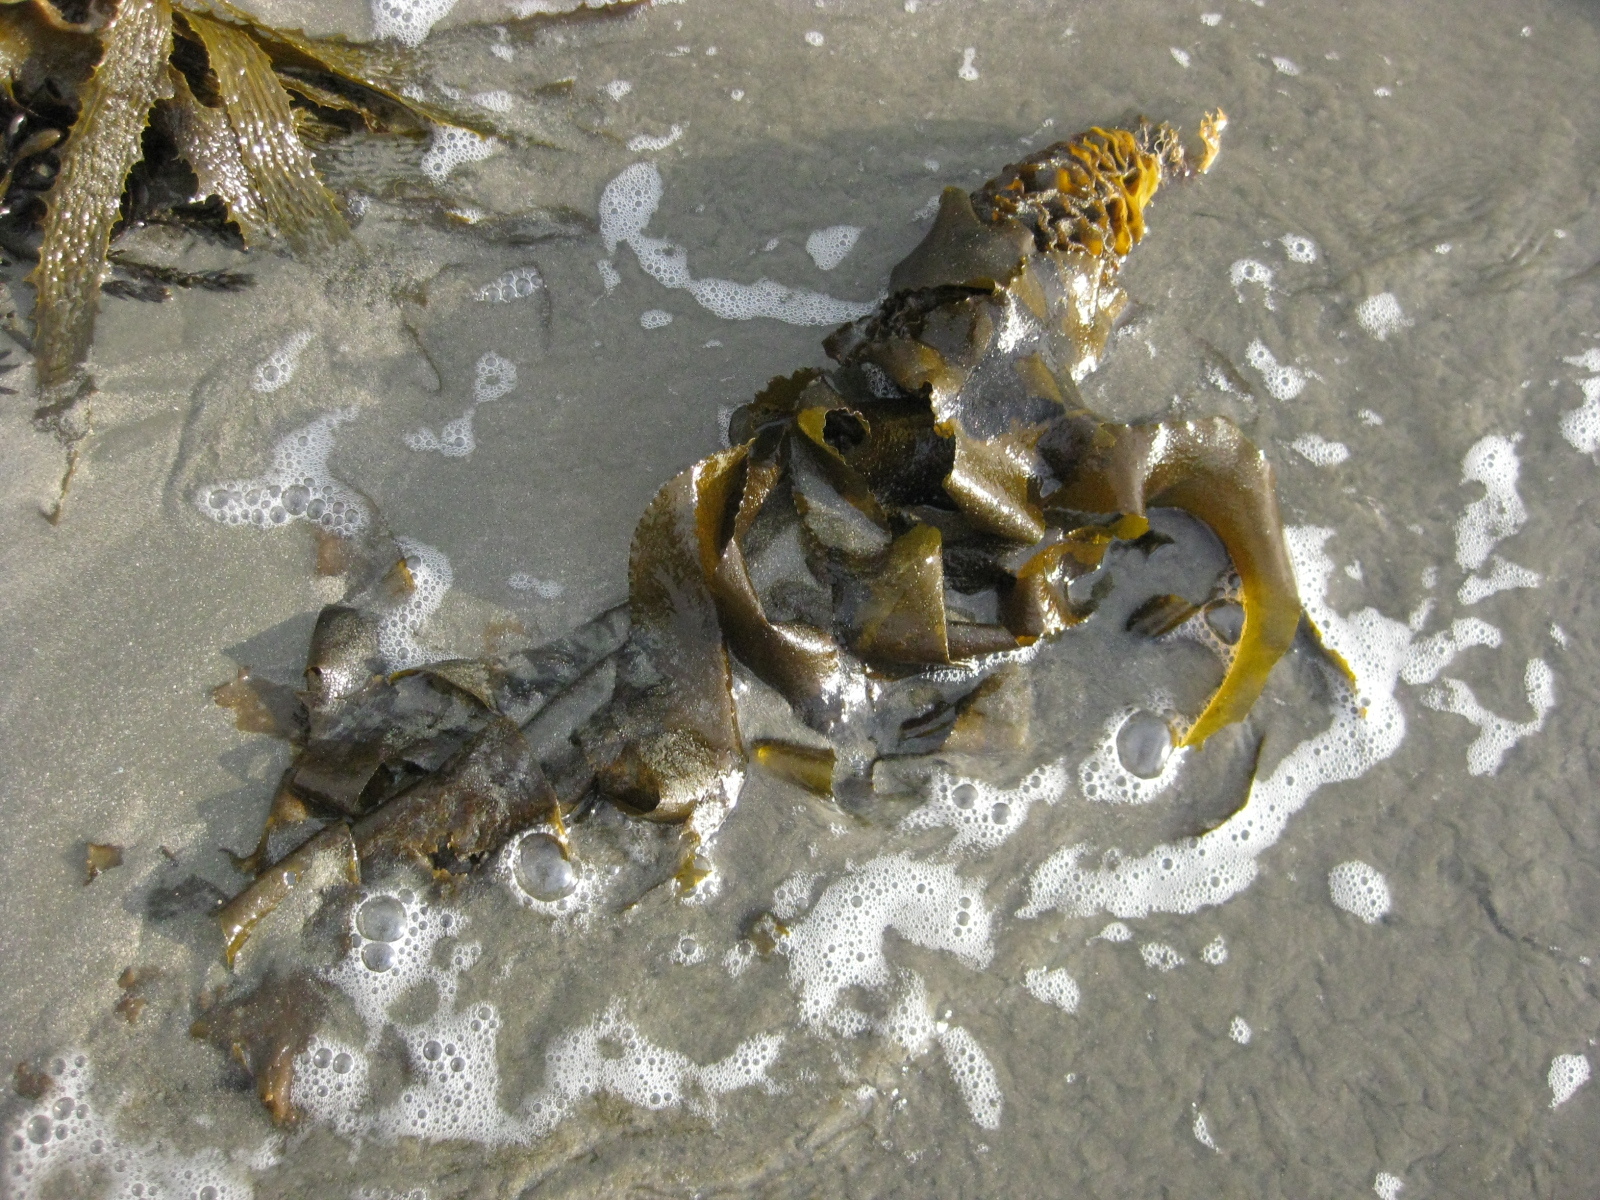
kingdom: Chromista
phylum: Ochrophyta
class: Phaeophyceae
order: Laminariales
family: Alariaceae
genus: Undaria
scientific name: Undaria pinnatifida
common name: Asian kelp
